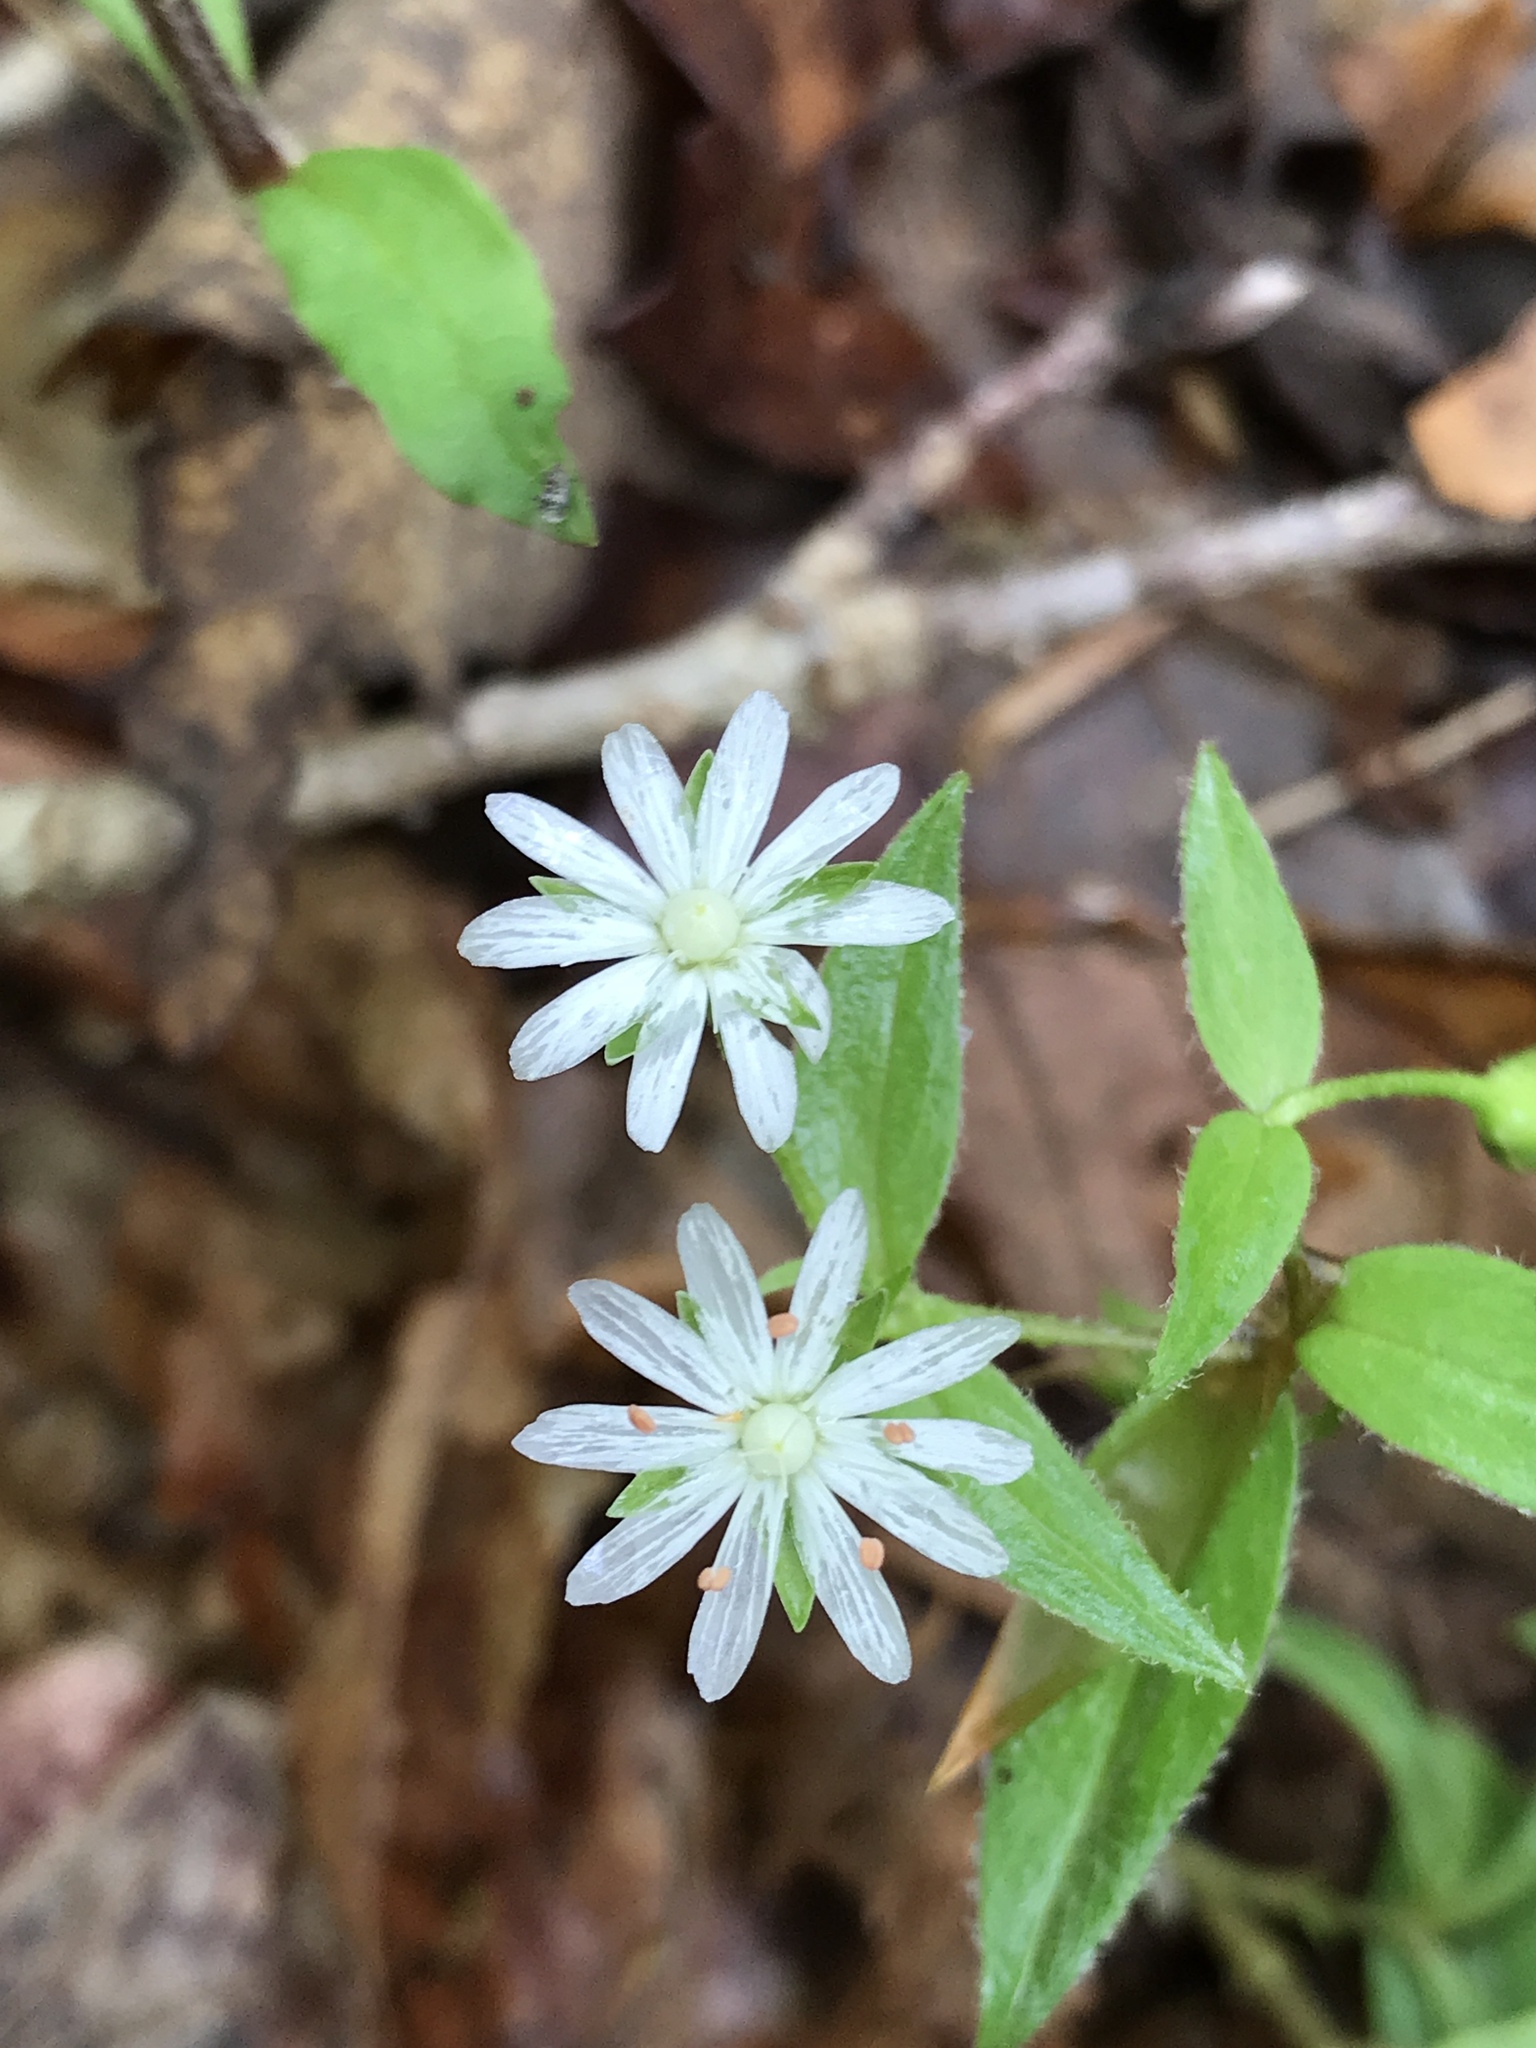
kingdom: Plantae
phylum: Tracheophyta
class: Magnoliopsida
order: Caryophyllales
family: Caryophyllaceae
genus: Stellaria
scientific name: Stellaria pubera
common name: Star chickweed
